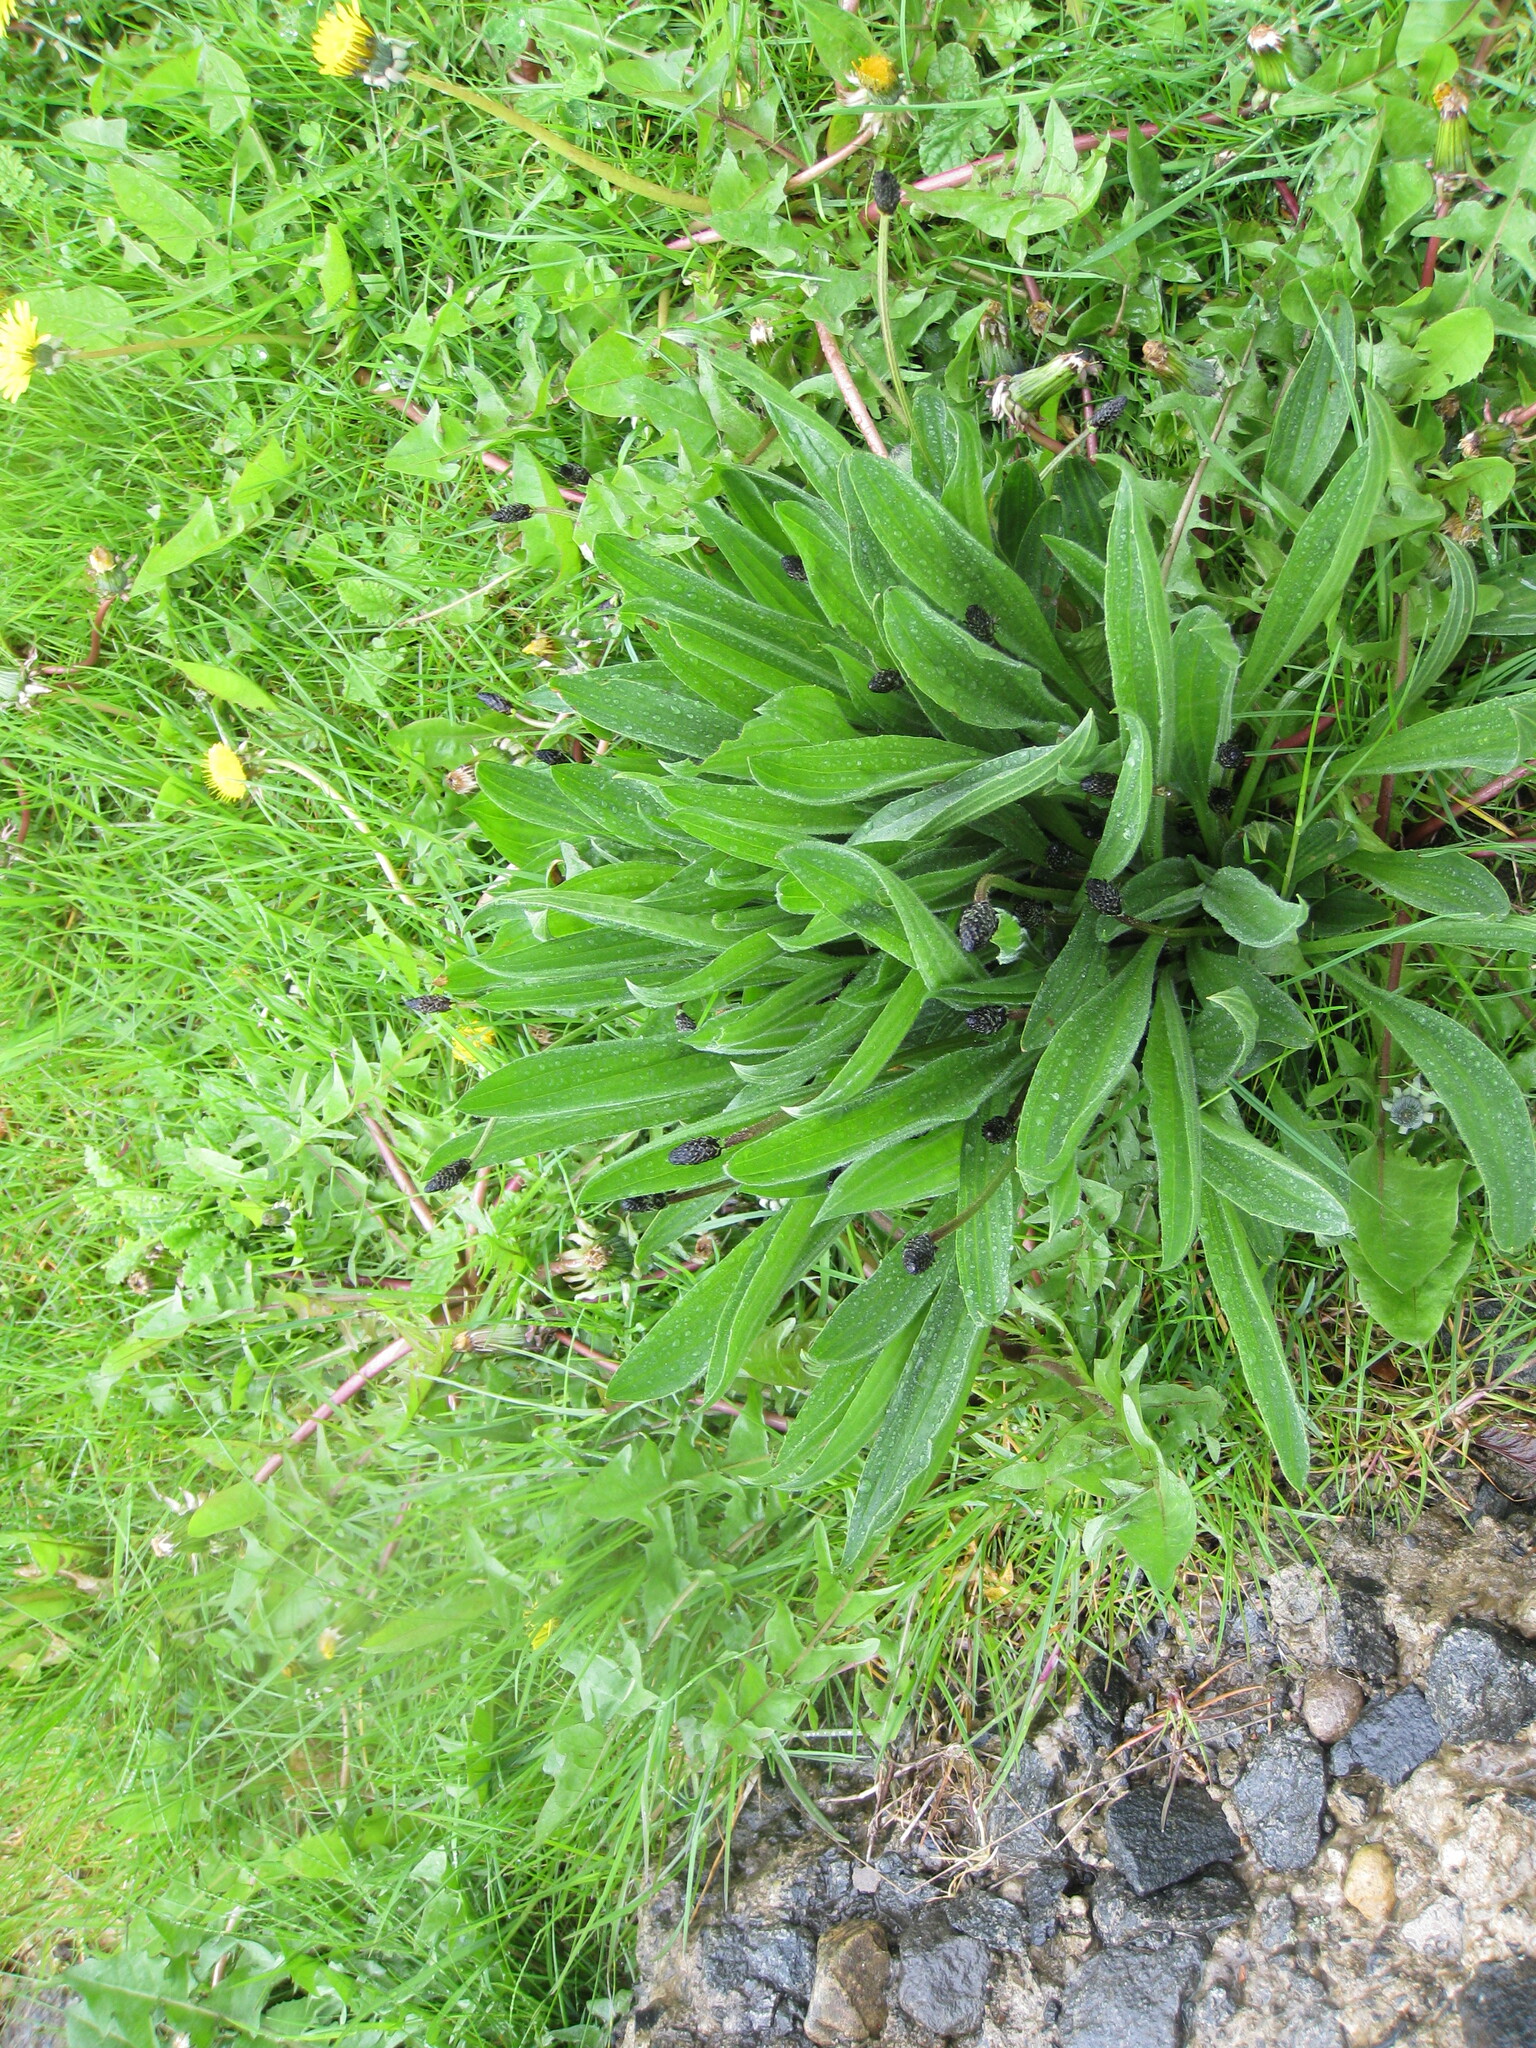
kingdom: Plantae
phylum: Tracheophyta
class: Magnoliopsida
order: Lamiales
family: Plantaginaceae
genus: Plantago
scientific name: Plantago lanceolata
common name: Ribwort plantain
